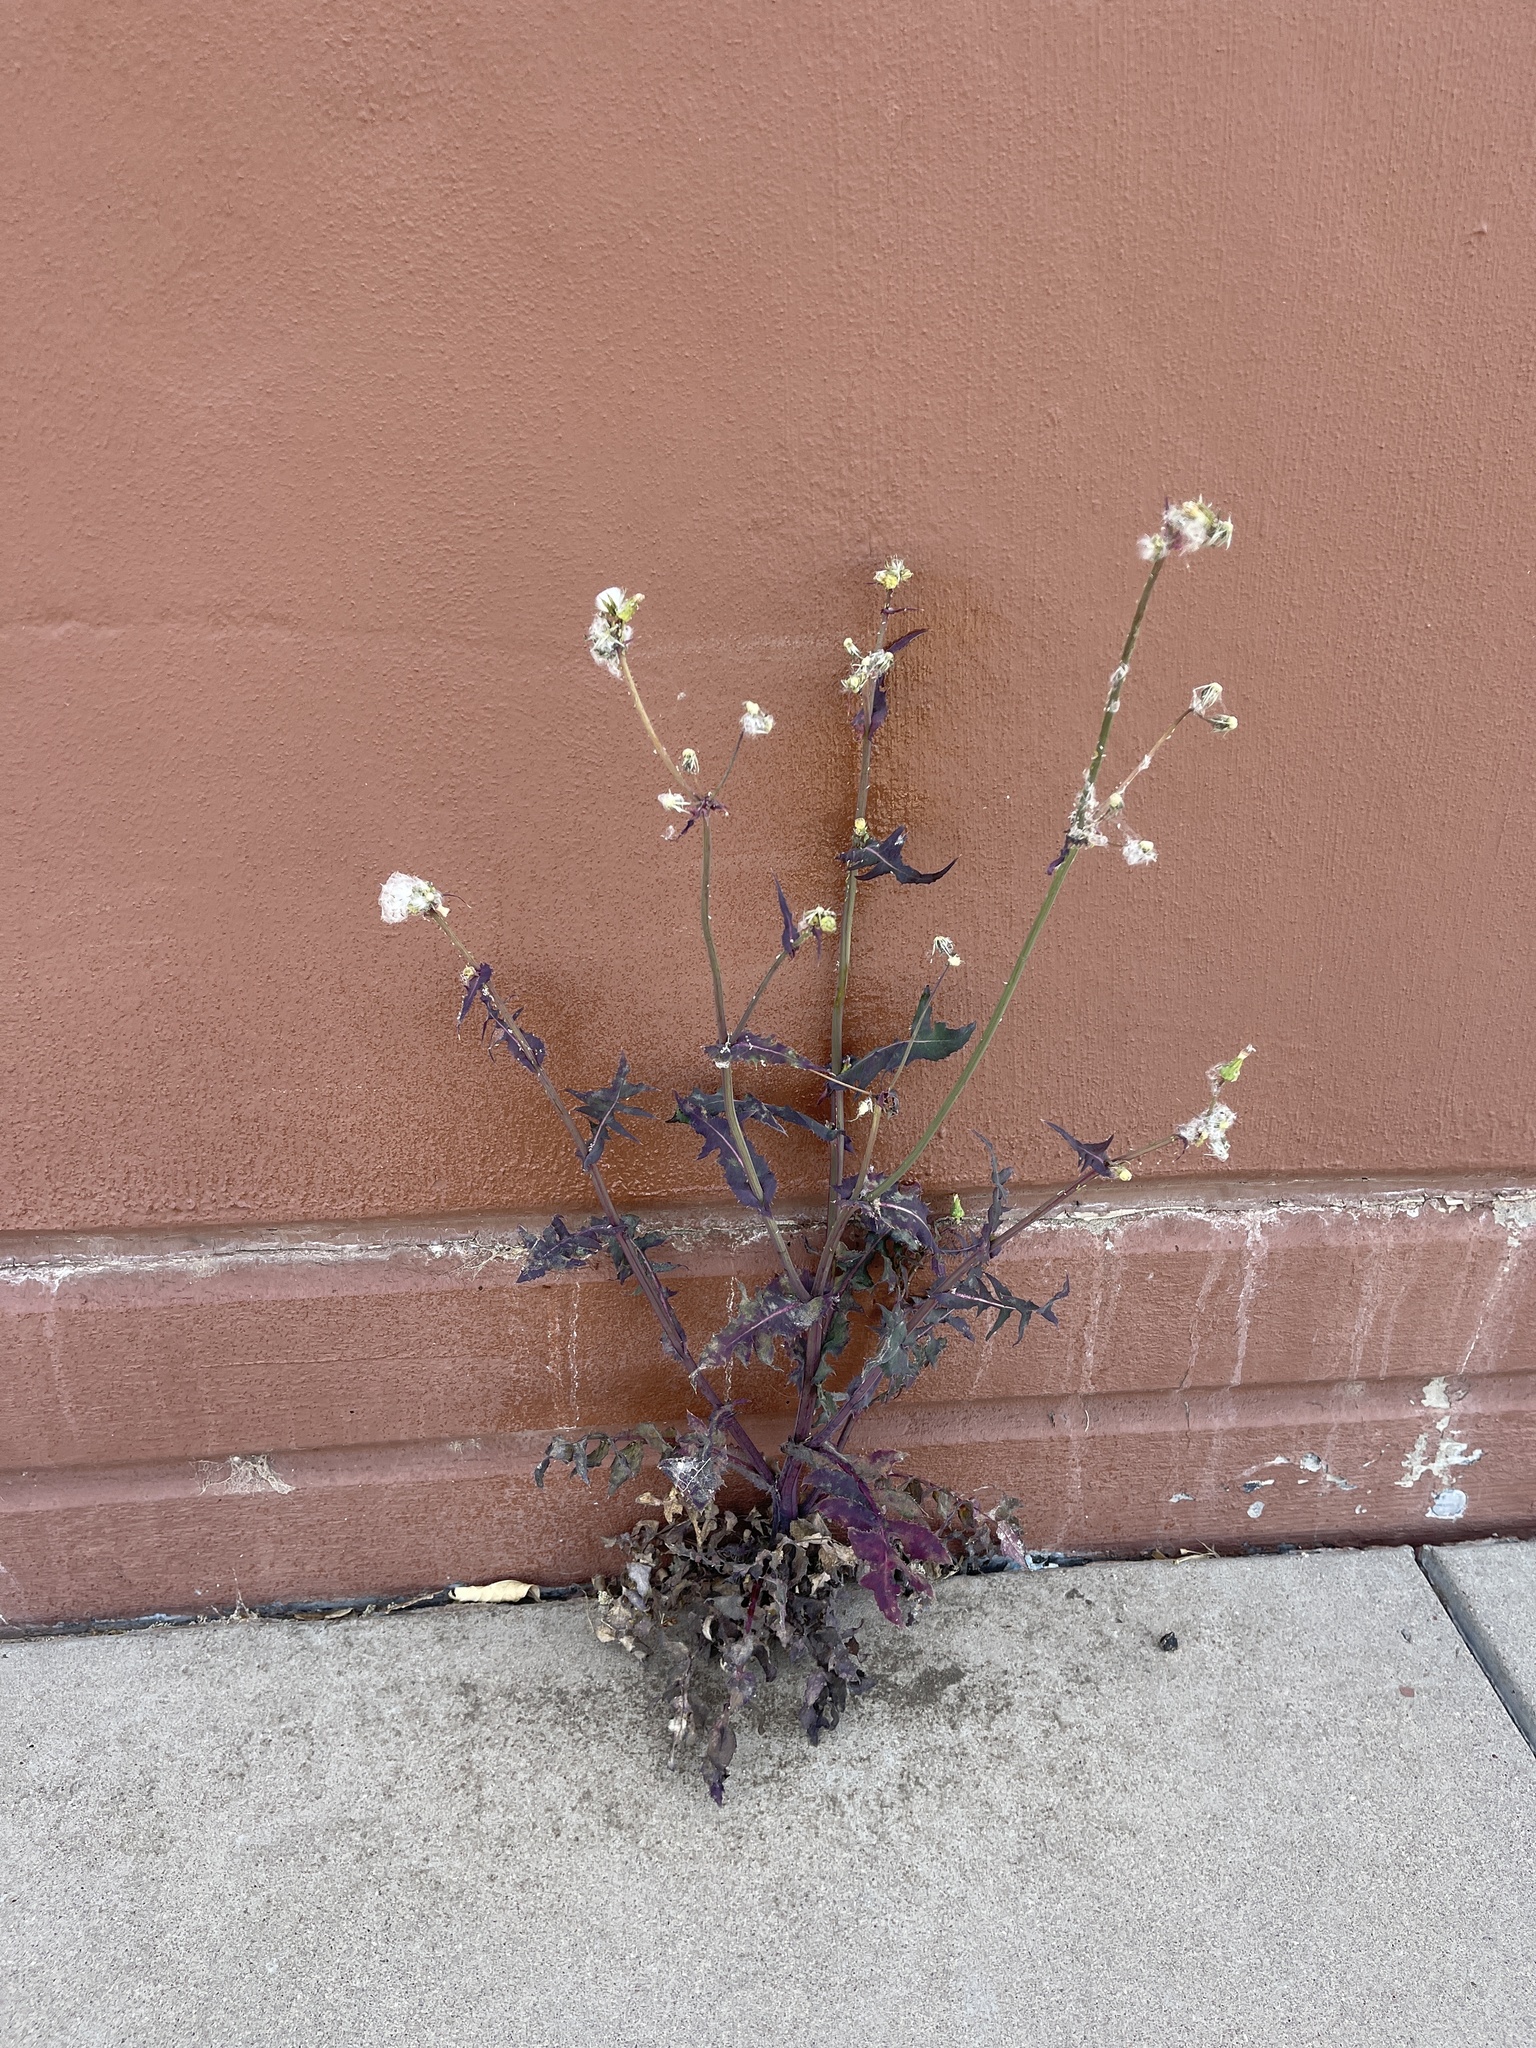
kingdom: Plantae
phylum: Tracheophyta
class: Magnoliopsida
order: Asterales
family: Asteraceae
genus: Sonchus
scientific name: Sonchus oleraceus
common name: Common sowthistle
